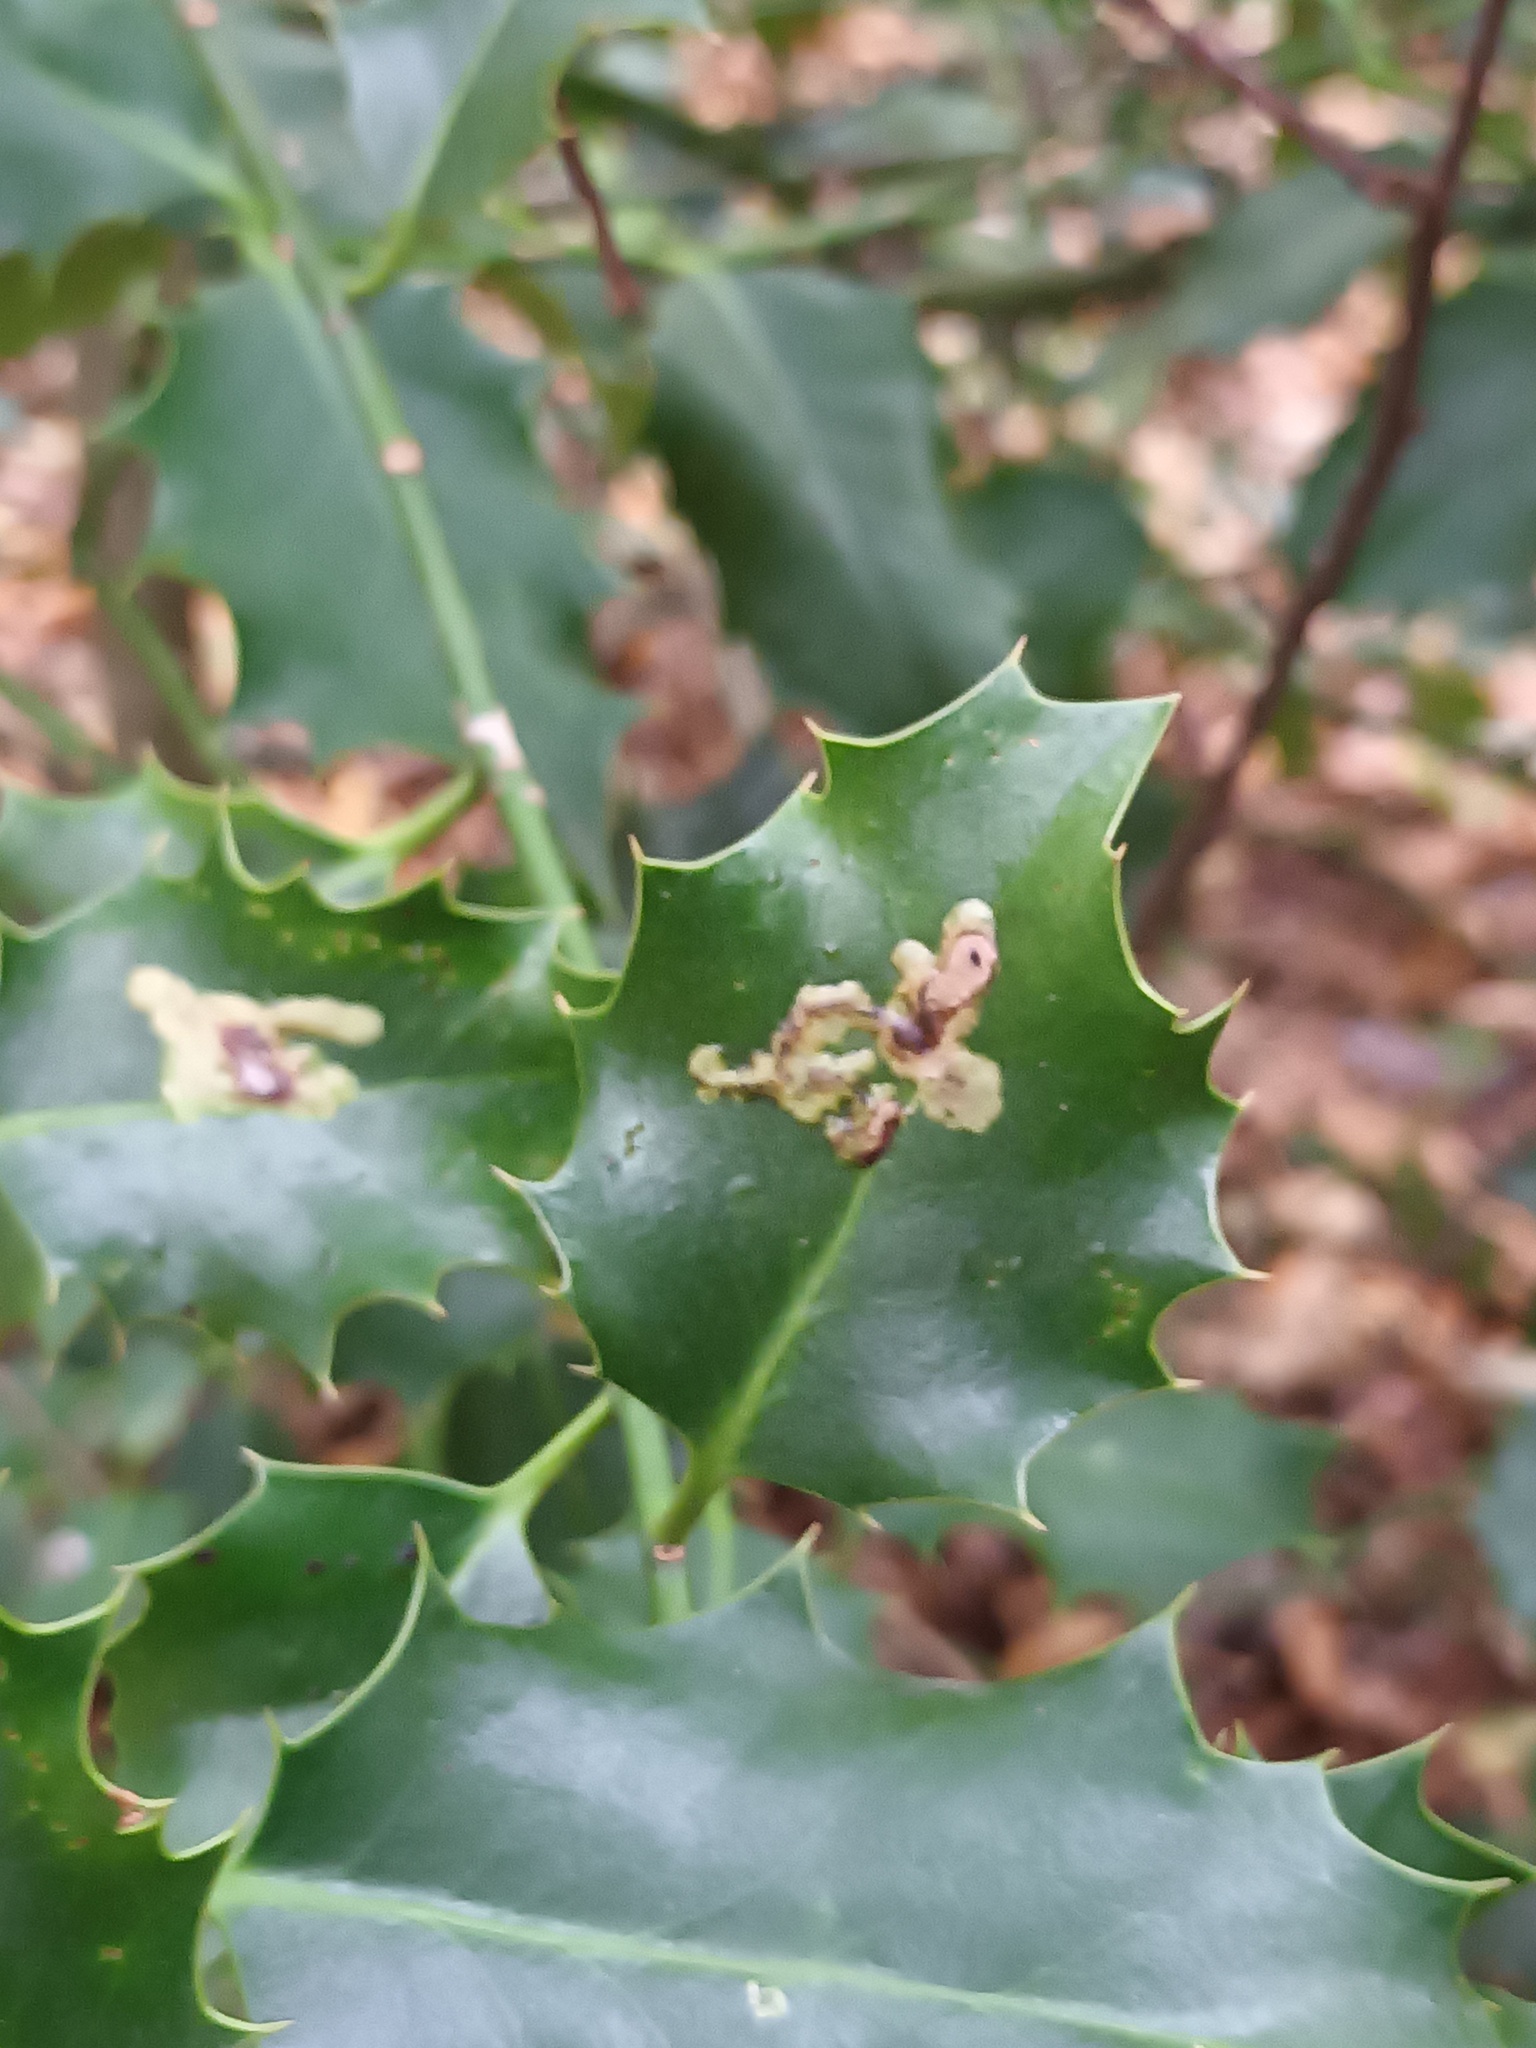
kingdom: Animalia
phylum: Arthropoda
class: Insecta
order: Diptera
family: Agromyzidae
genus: Phytomyza
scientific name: Phytomyza ilicis
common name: Holly leafminer
